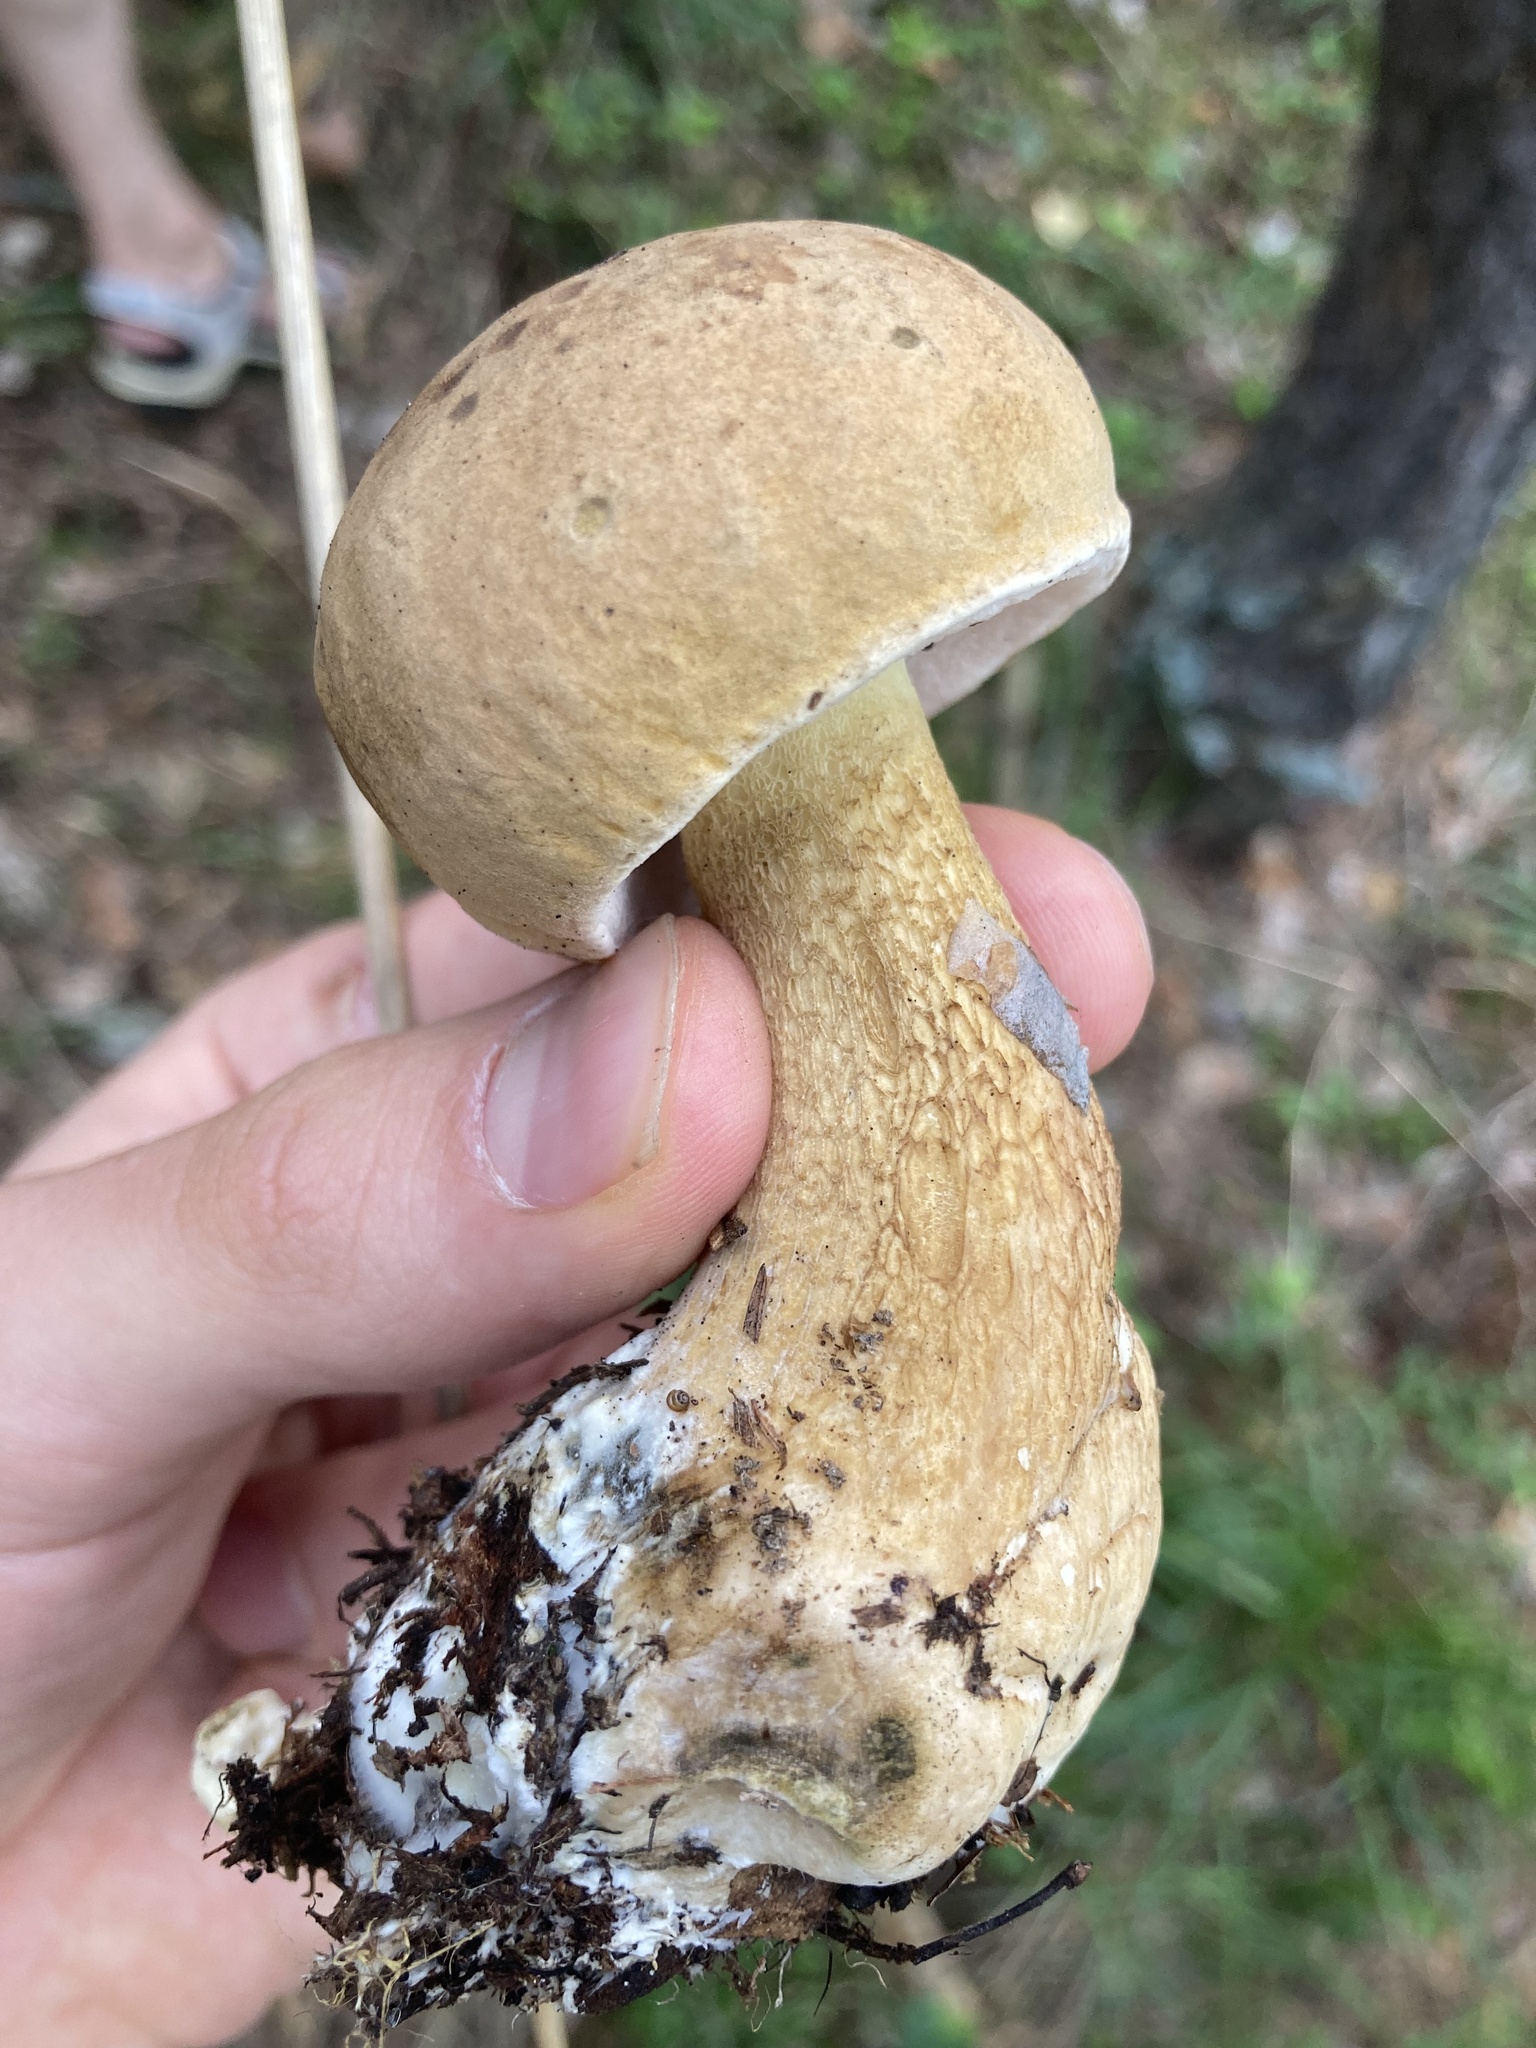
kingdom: Fungi
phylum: Basidiomycota
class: Agaricomycetes
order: Boletales
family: Boletaceae
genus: Tylopilus
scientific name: Tylopilus felleus
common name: Bitter bolete
